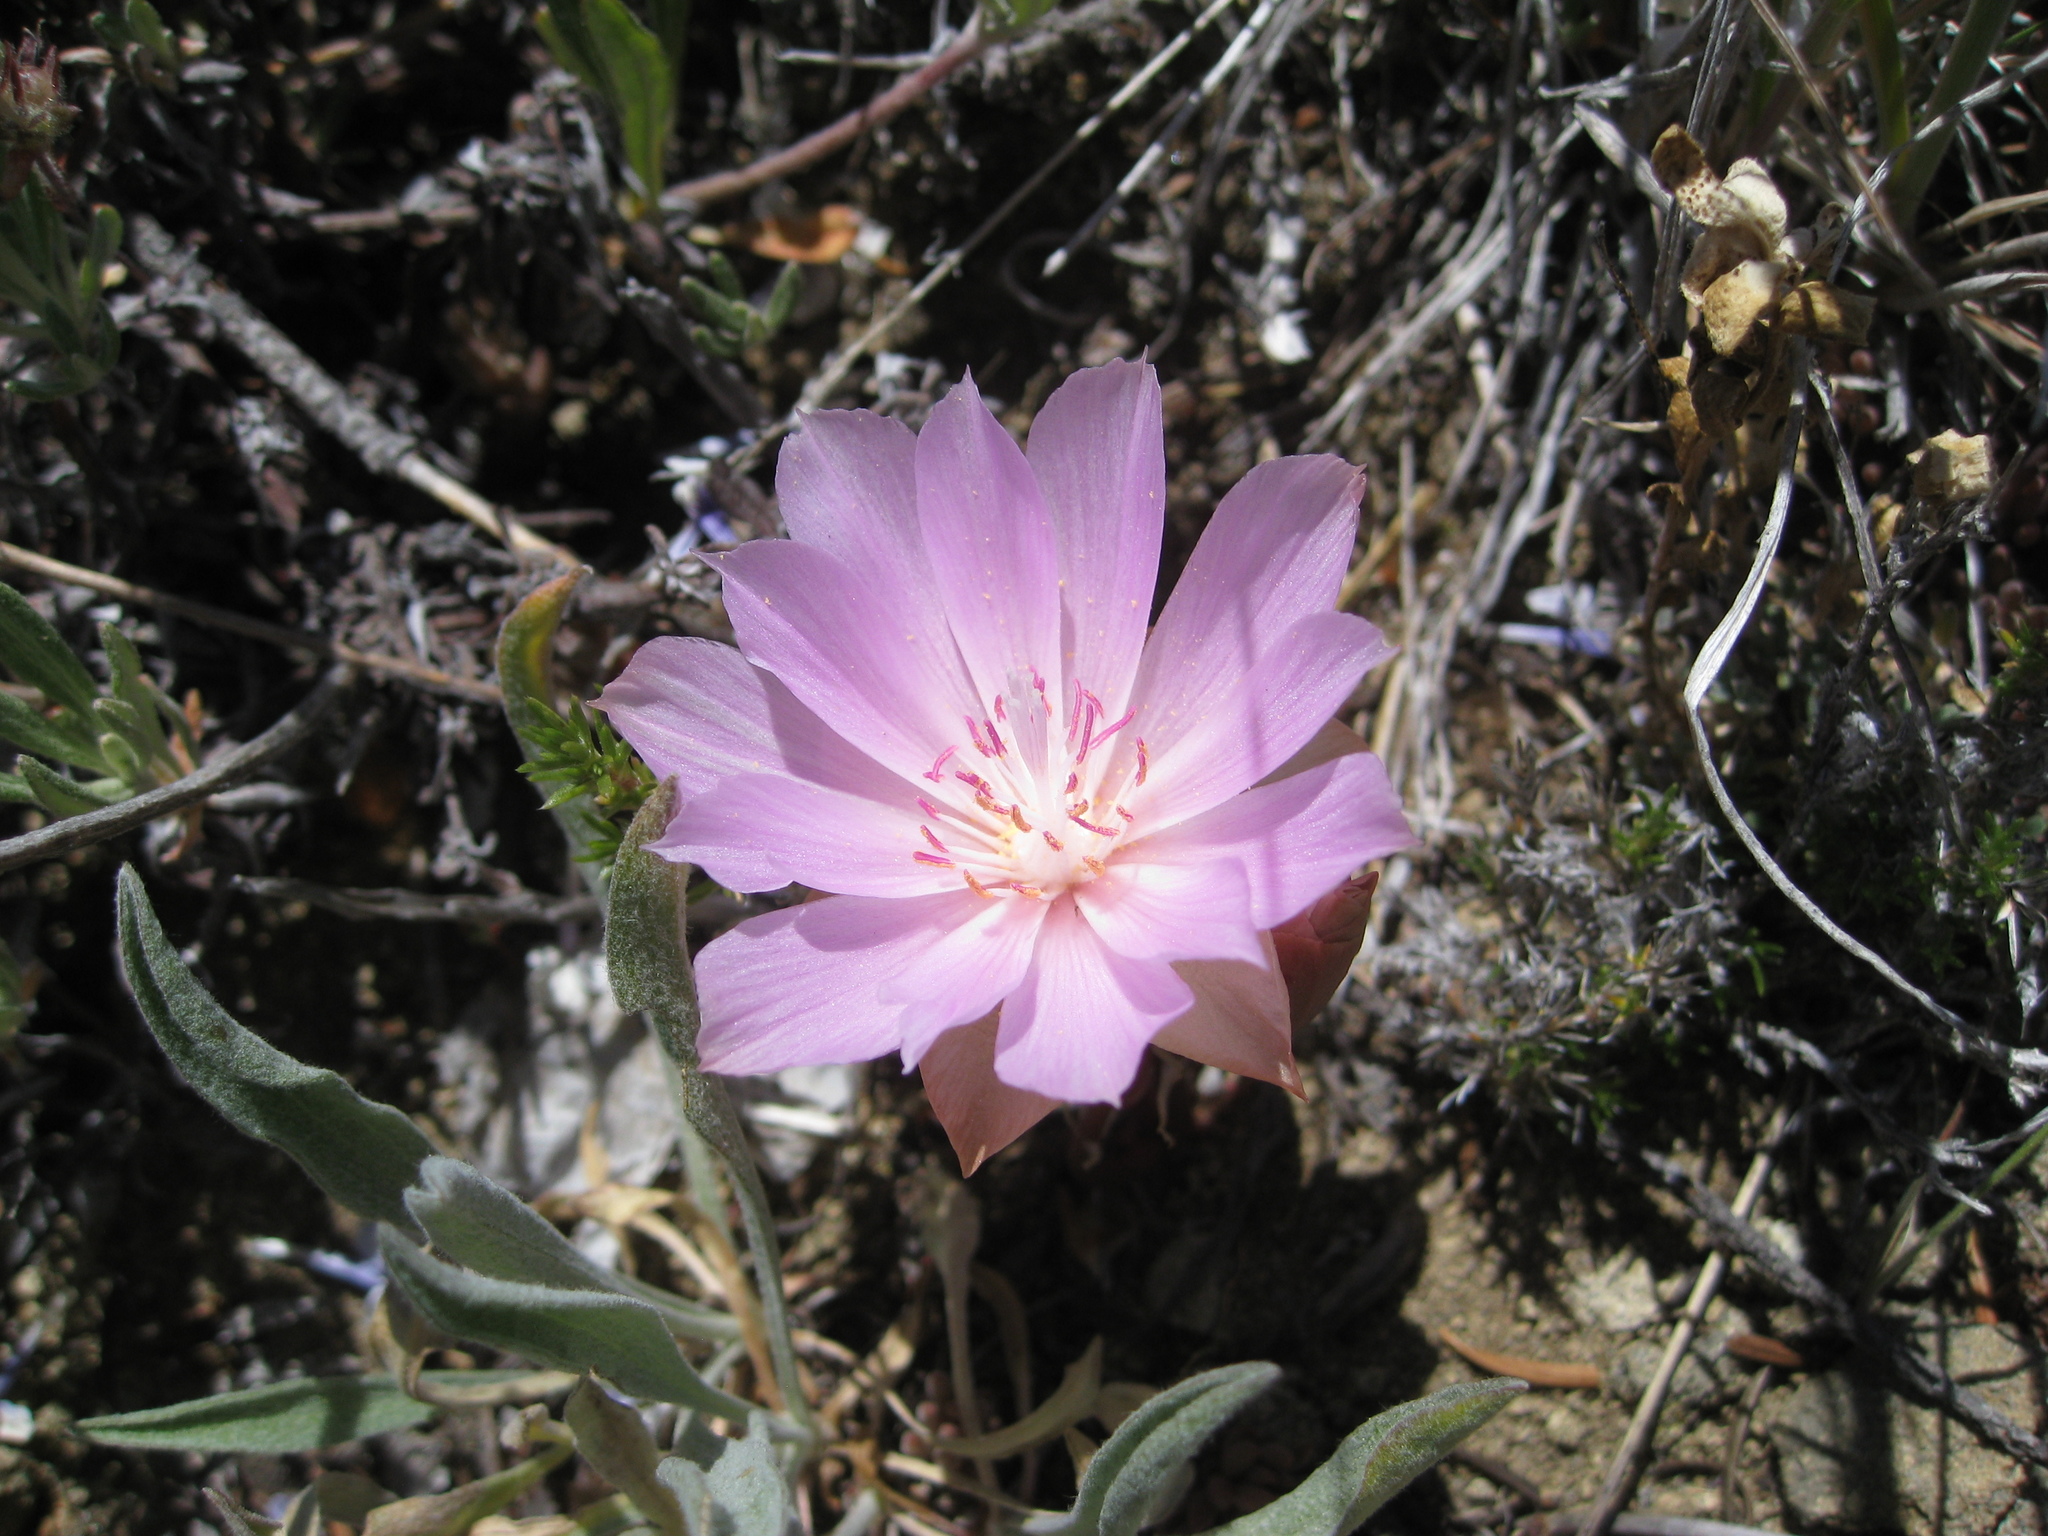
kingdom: Plantae
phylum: Tracheophyta
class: Magnoliopsida
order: Caryophyllales
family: Montiaceae
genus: Lewisia
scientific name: Lewisia rediviva
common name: Bitter-root
